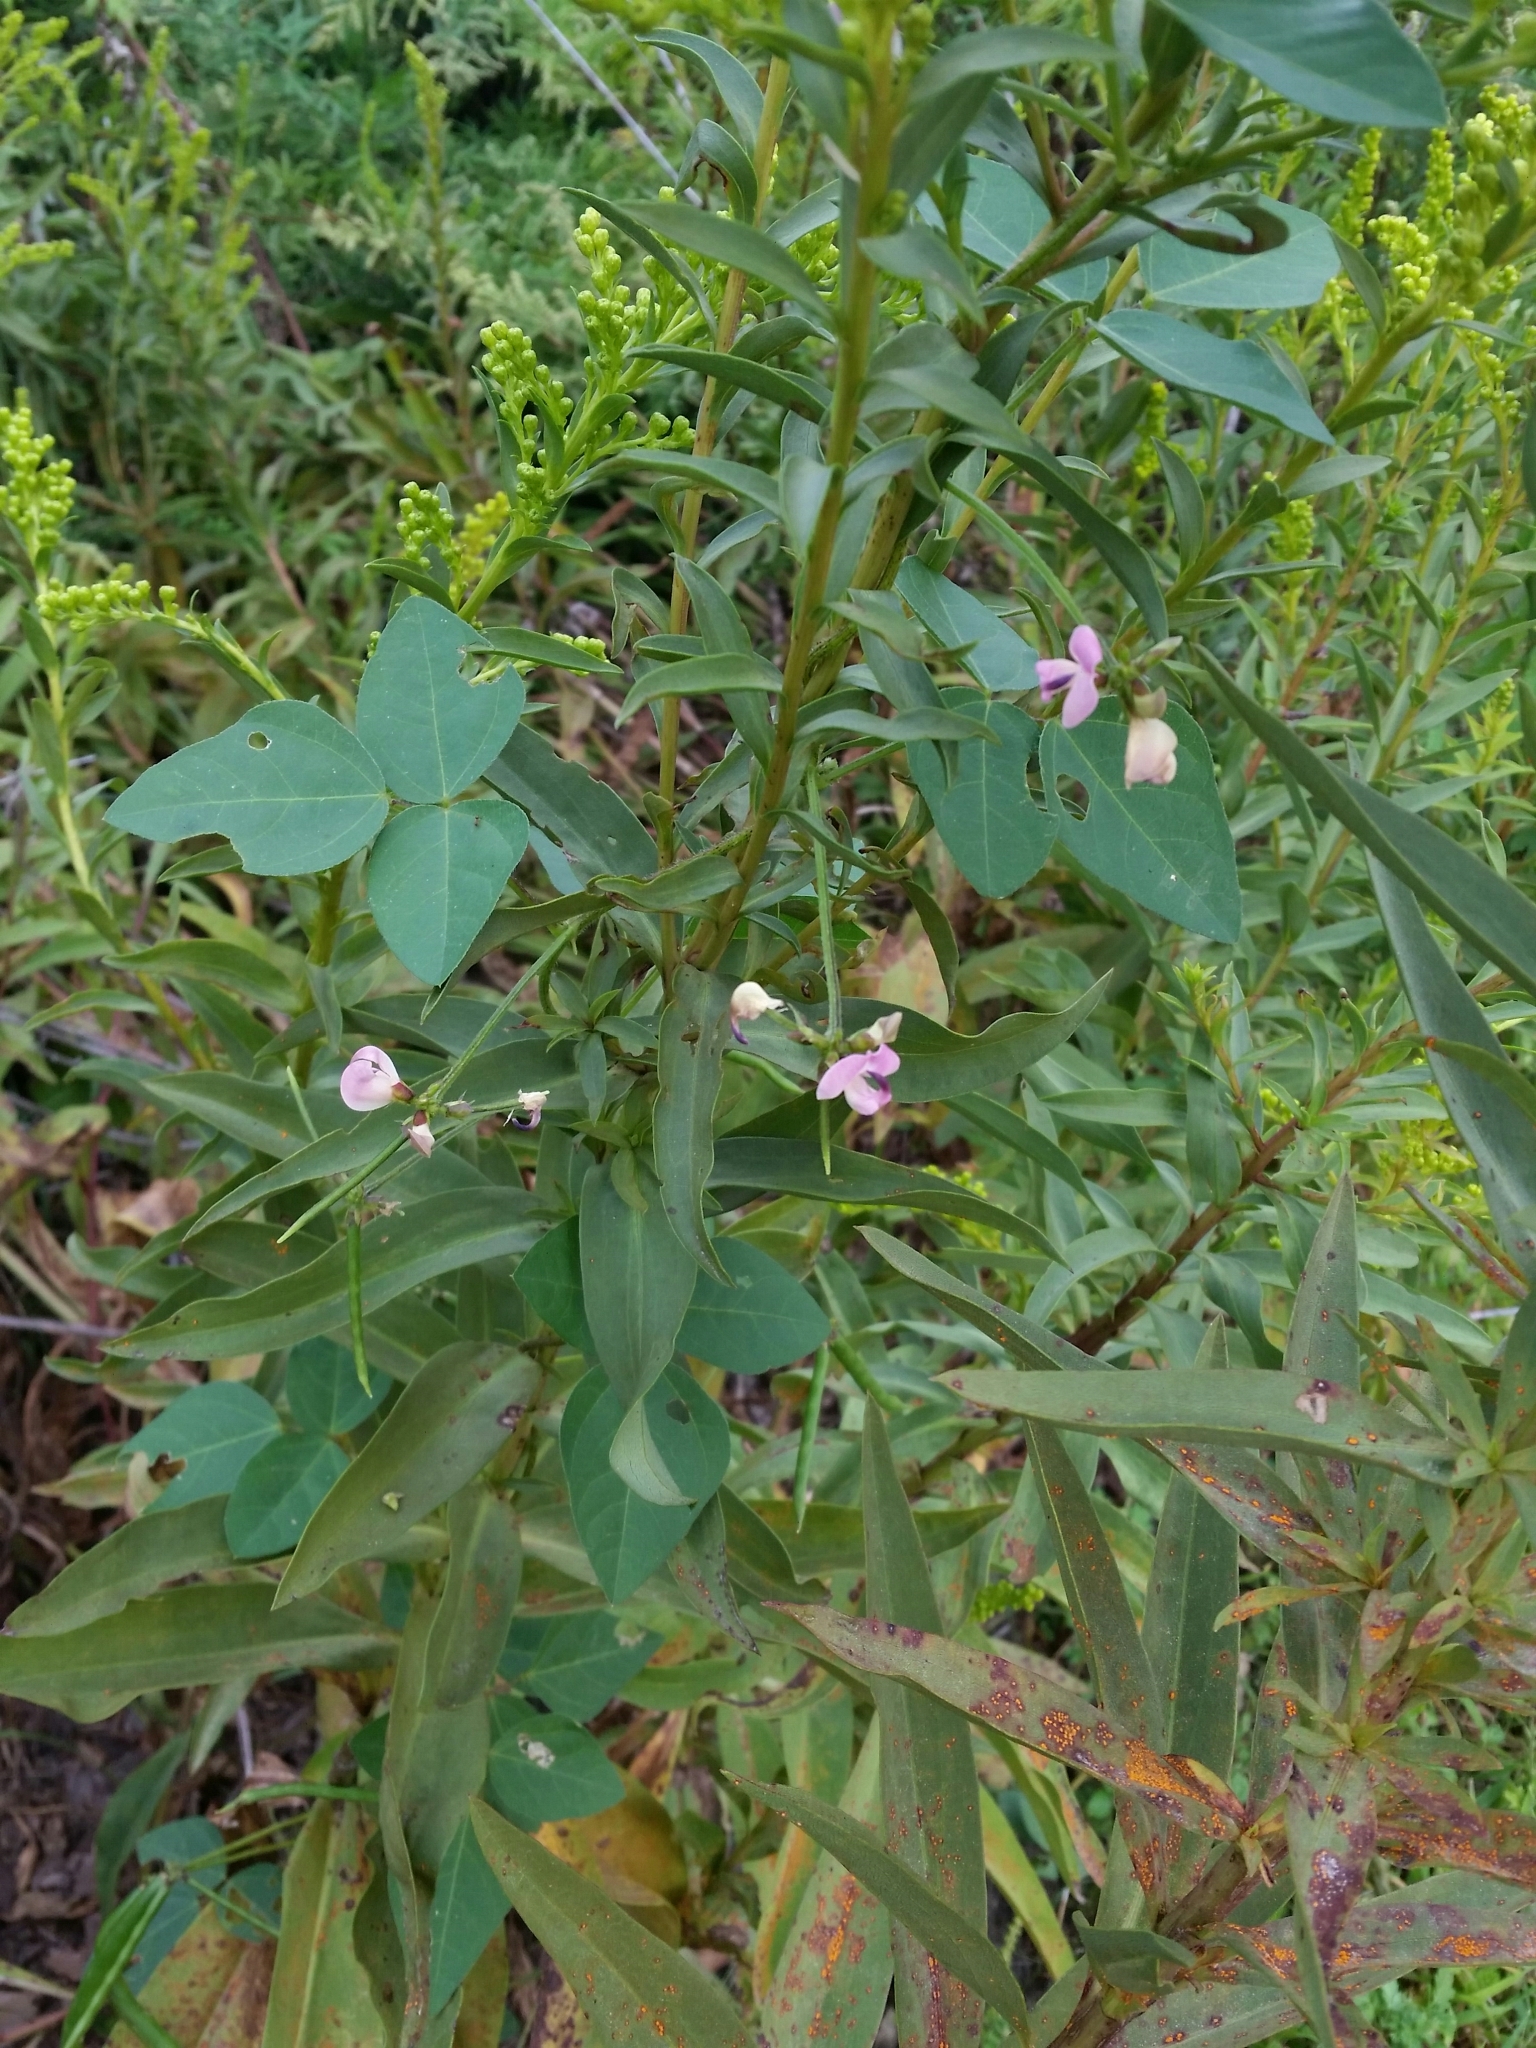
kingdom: Plantae
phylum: Tracheophyta
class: Magnoliopsida
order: Fabales
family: Fabaceae
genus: Strophostyles
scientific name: Strophostyles helvola
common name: Trailing wild bean
